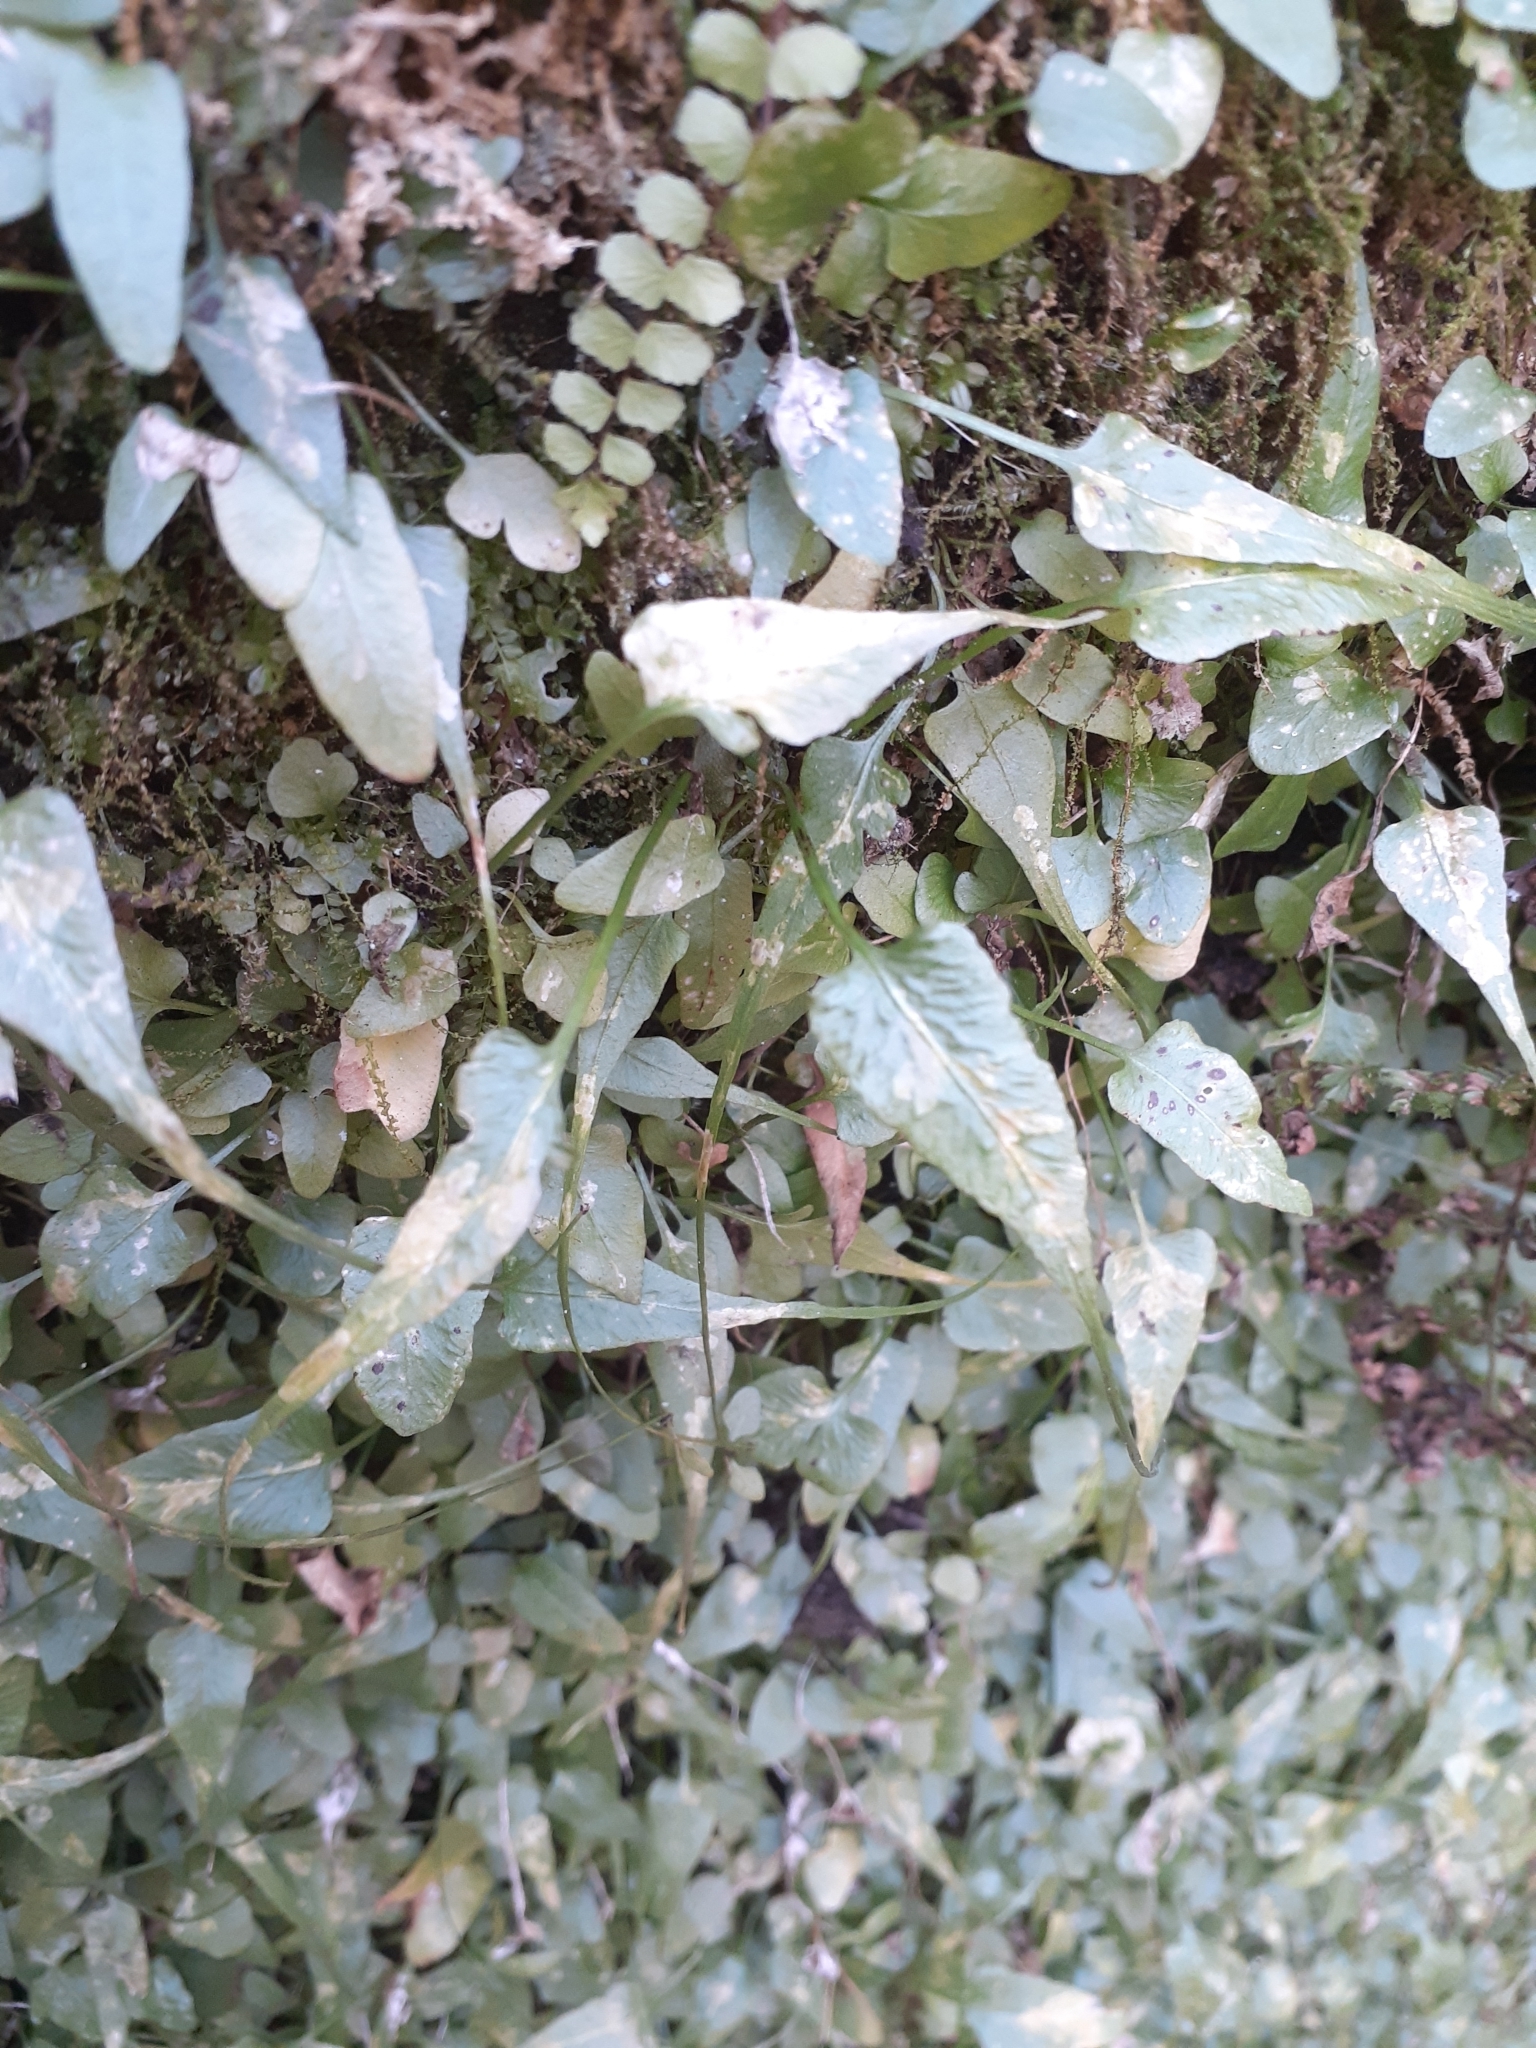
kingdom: Plantae
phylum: Tracheophyta
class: Polypodiopsida
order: Polypodiales
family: Aspleniaceae
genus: Asplenium
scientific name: Asplenium rhizophyllum
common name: Walking fern
